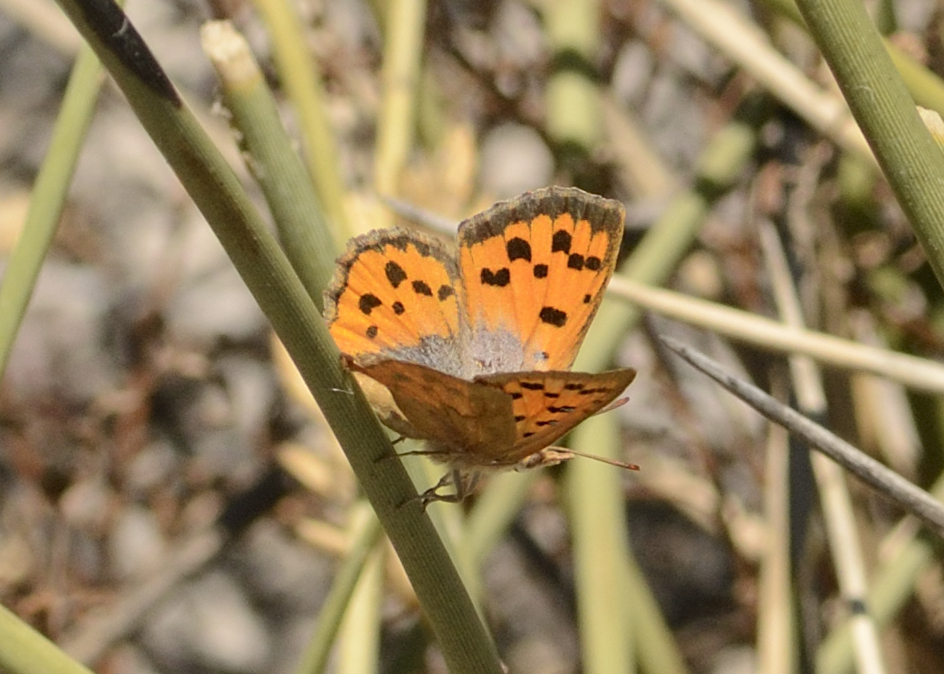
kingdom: Animalia
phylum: Arthropoda
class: Insecta
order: Lepidoptera
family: Lycaenidae
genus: Chrysoritis
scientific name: Chrysoritis pan
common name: Pan opal
